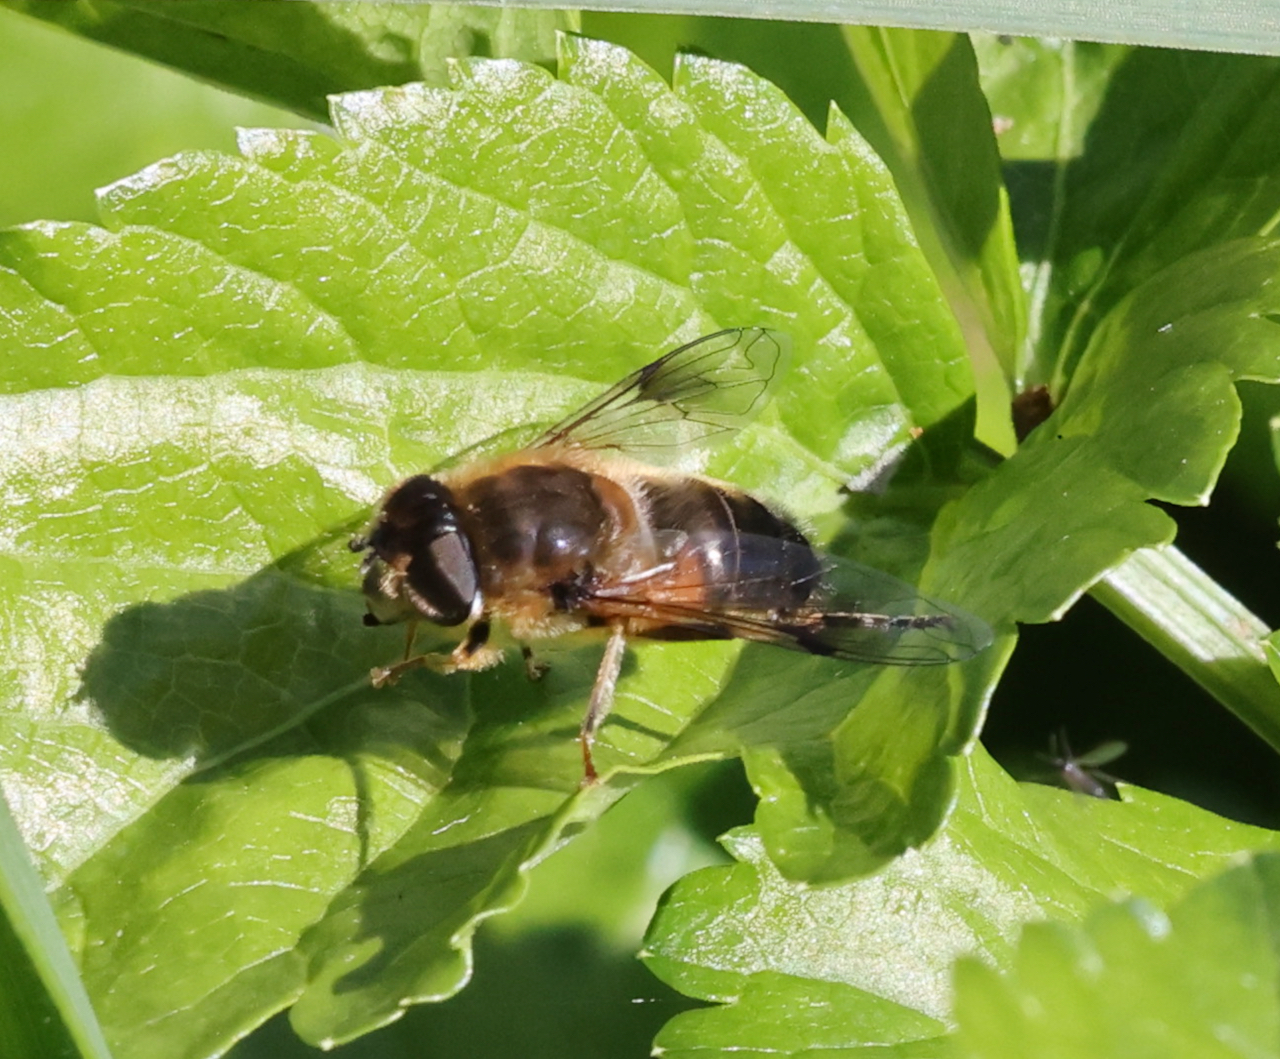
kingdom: Animalia
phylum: Arthropoda
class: Insecta
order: Diptera
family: Syrphidae
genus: Eristalis
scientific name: Eristalis pertinax
